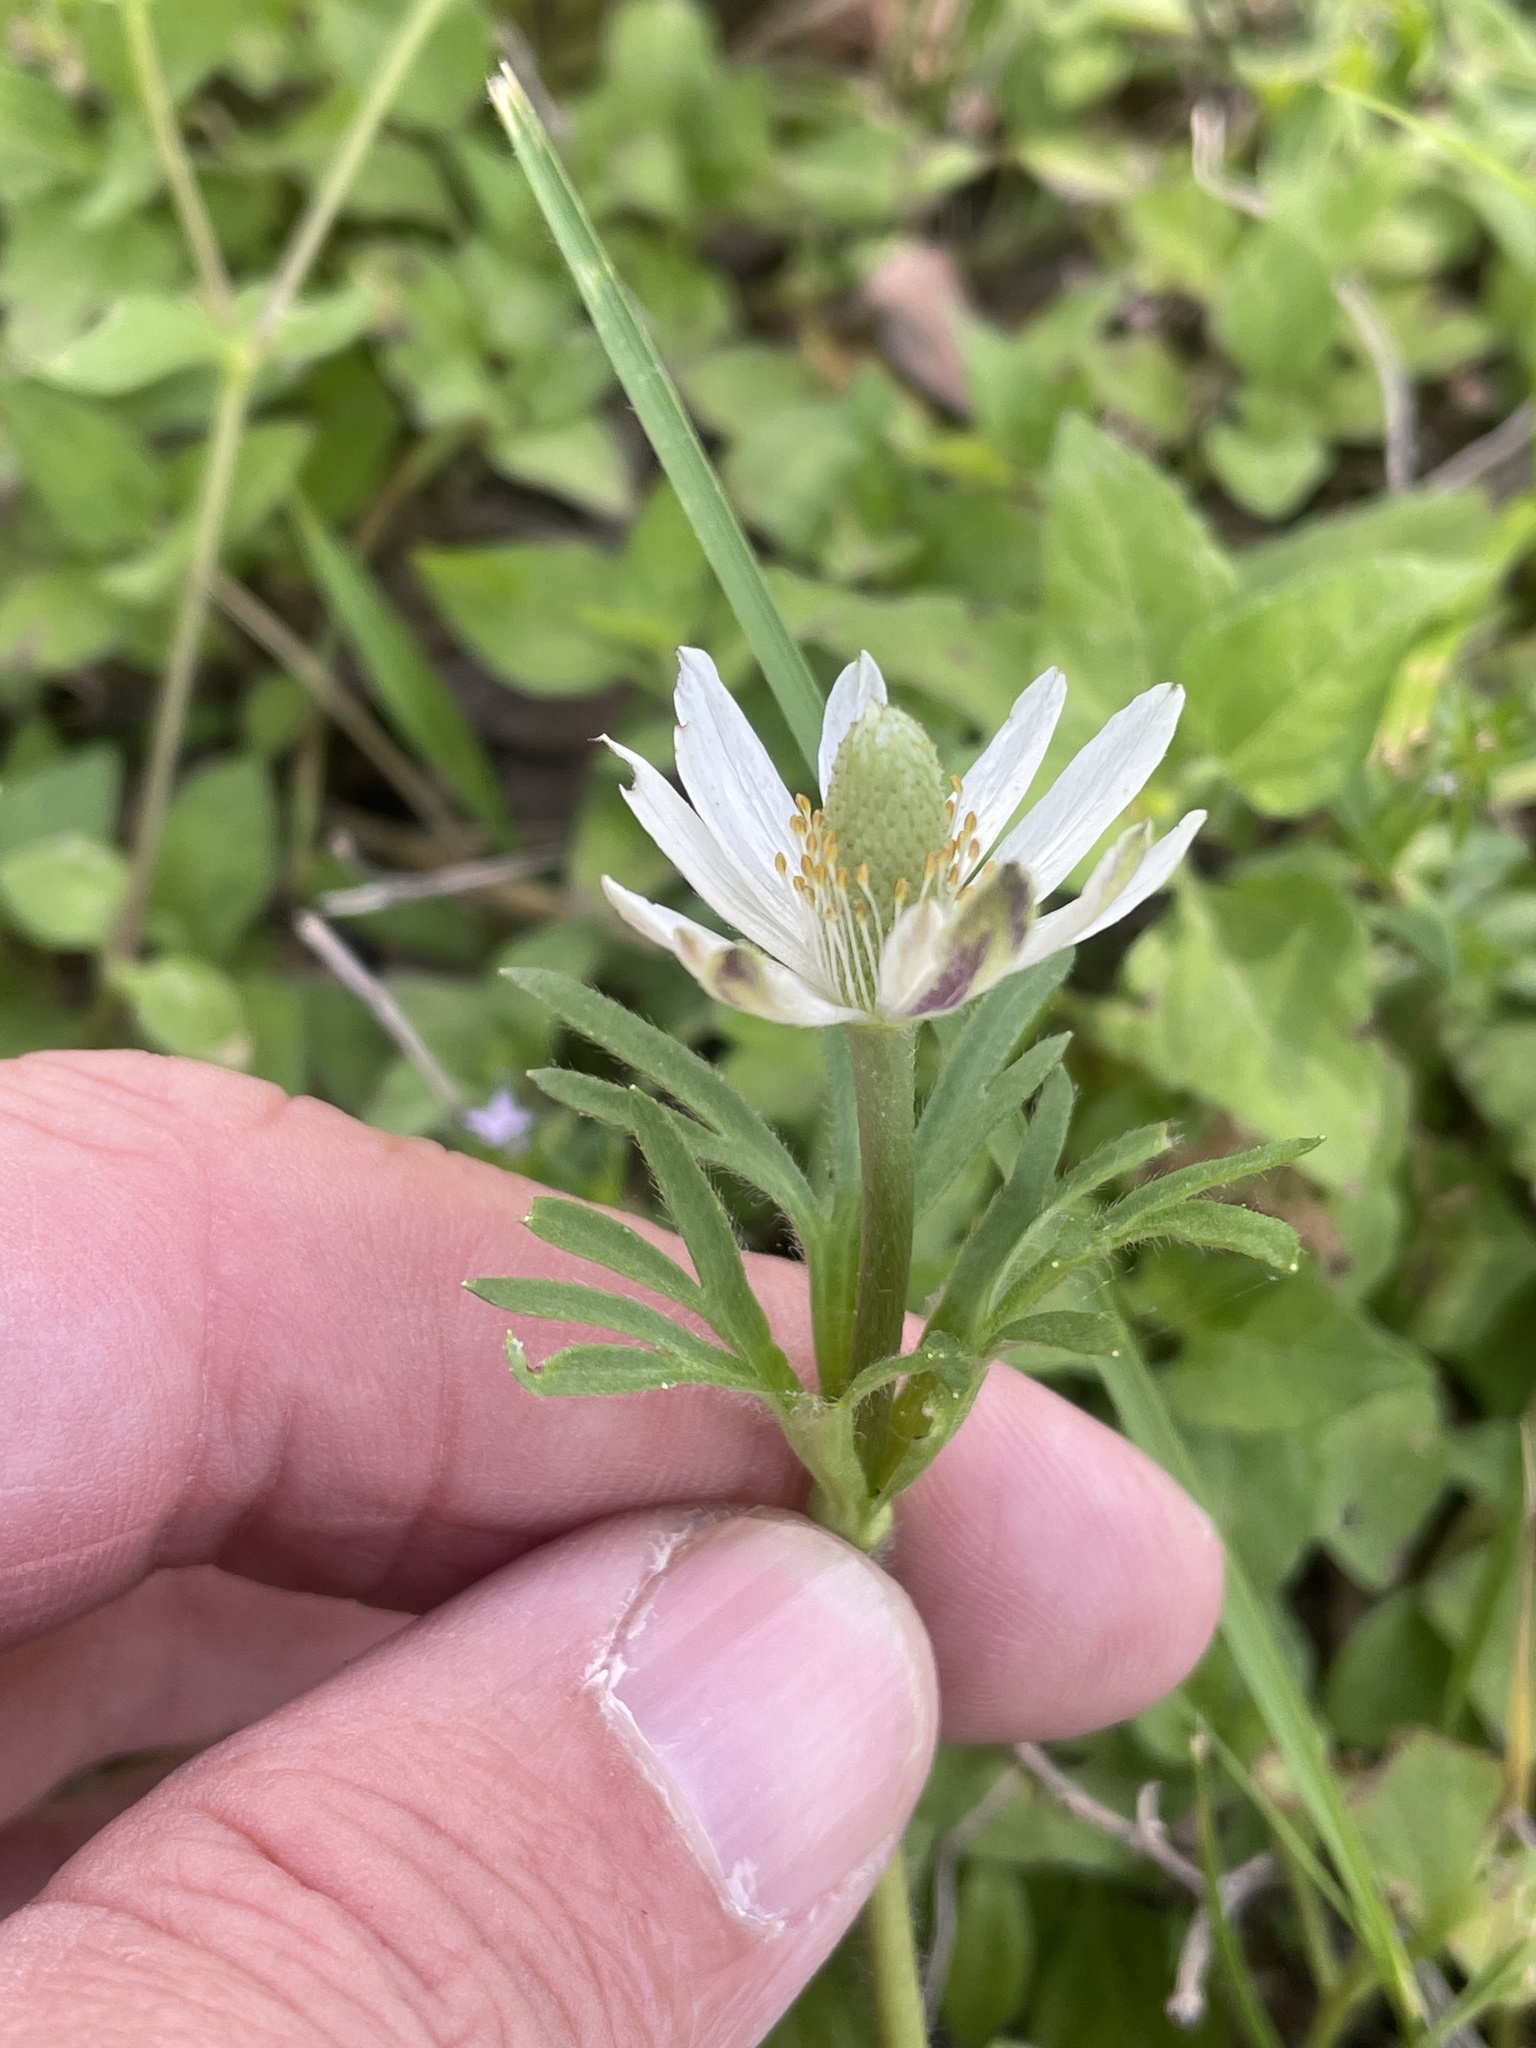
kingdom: Plantae
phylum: Tracheophyta
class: Magnoliopsida
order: Ranunculales
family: Ranunculaceae
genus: Anemone
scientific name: Anemone berlandieri
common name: Ten-petal anemone
